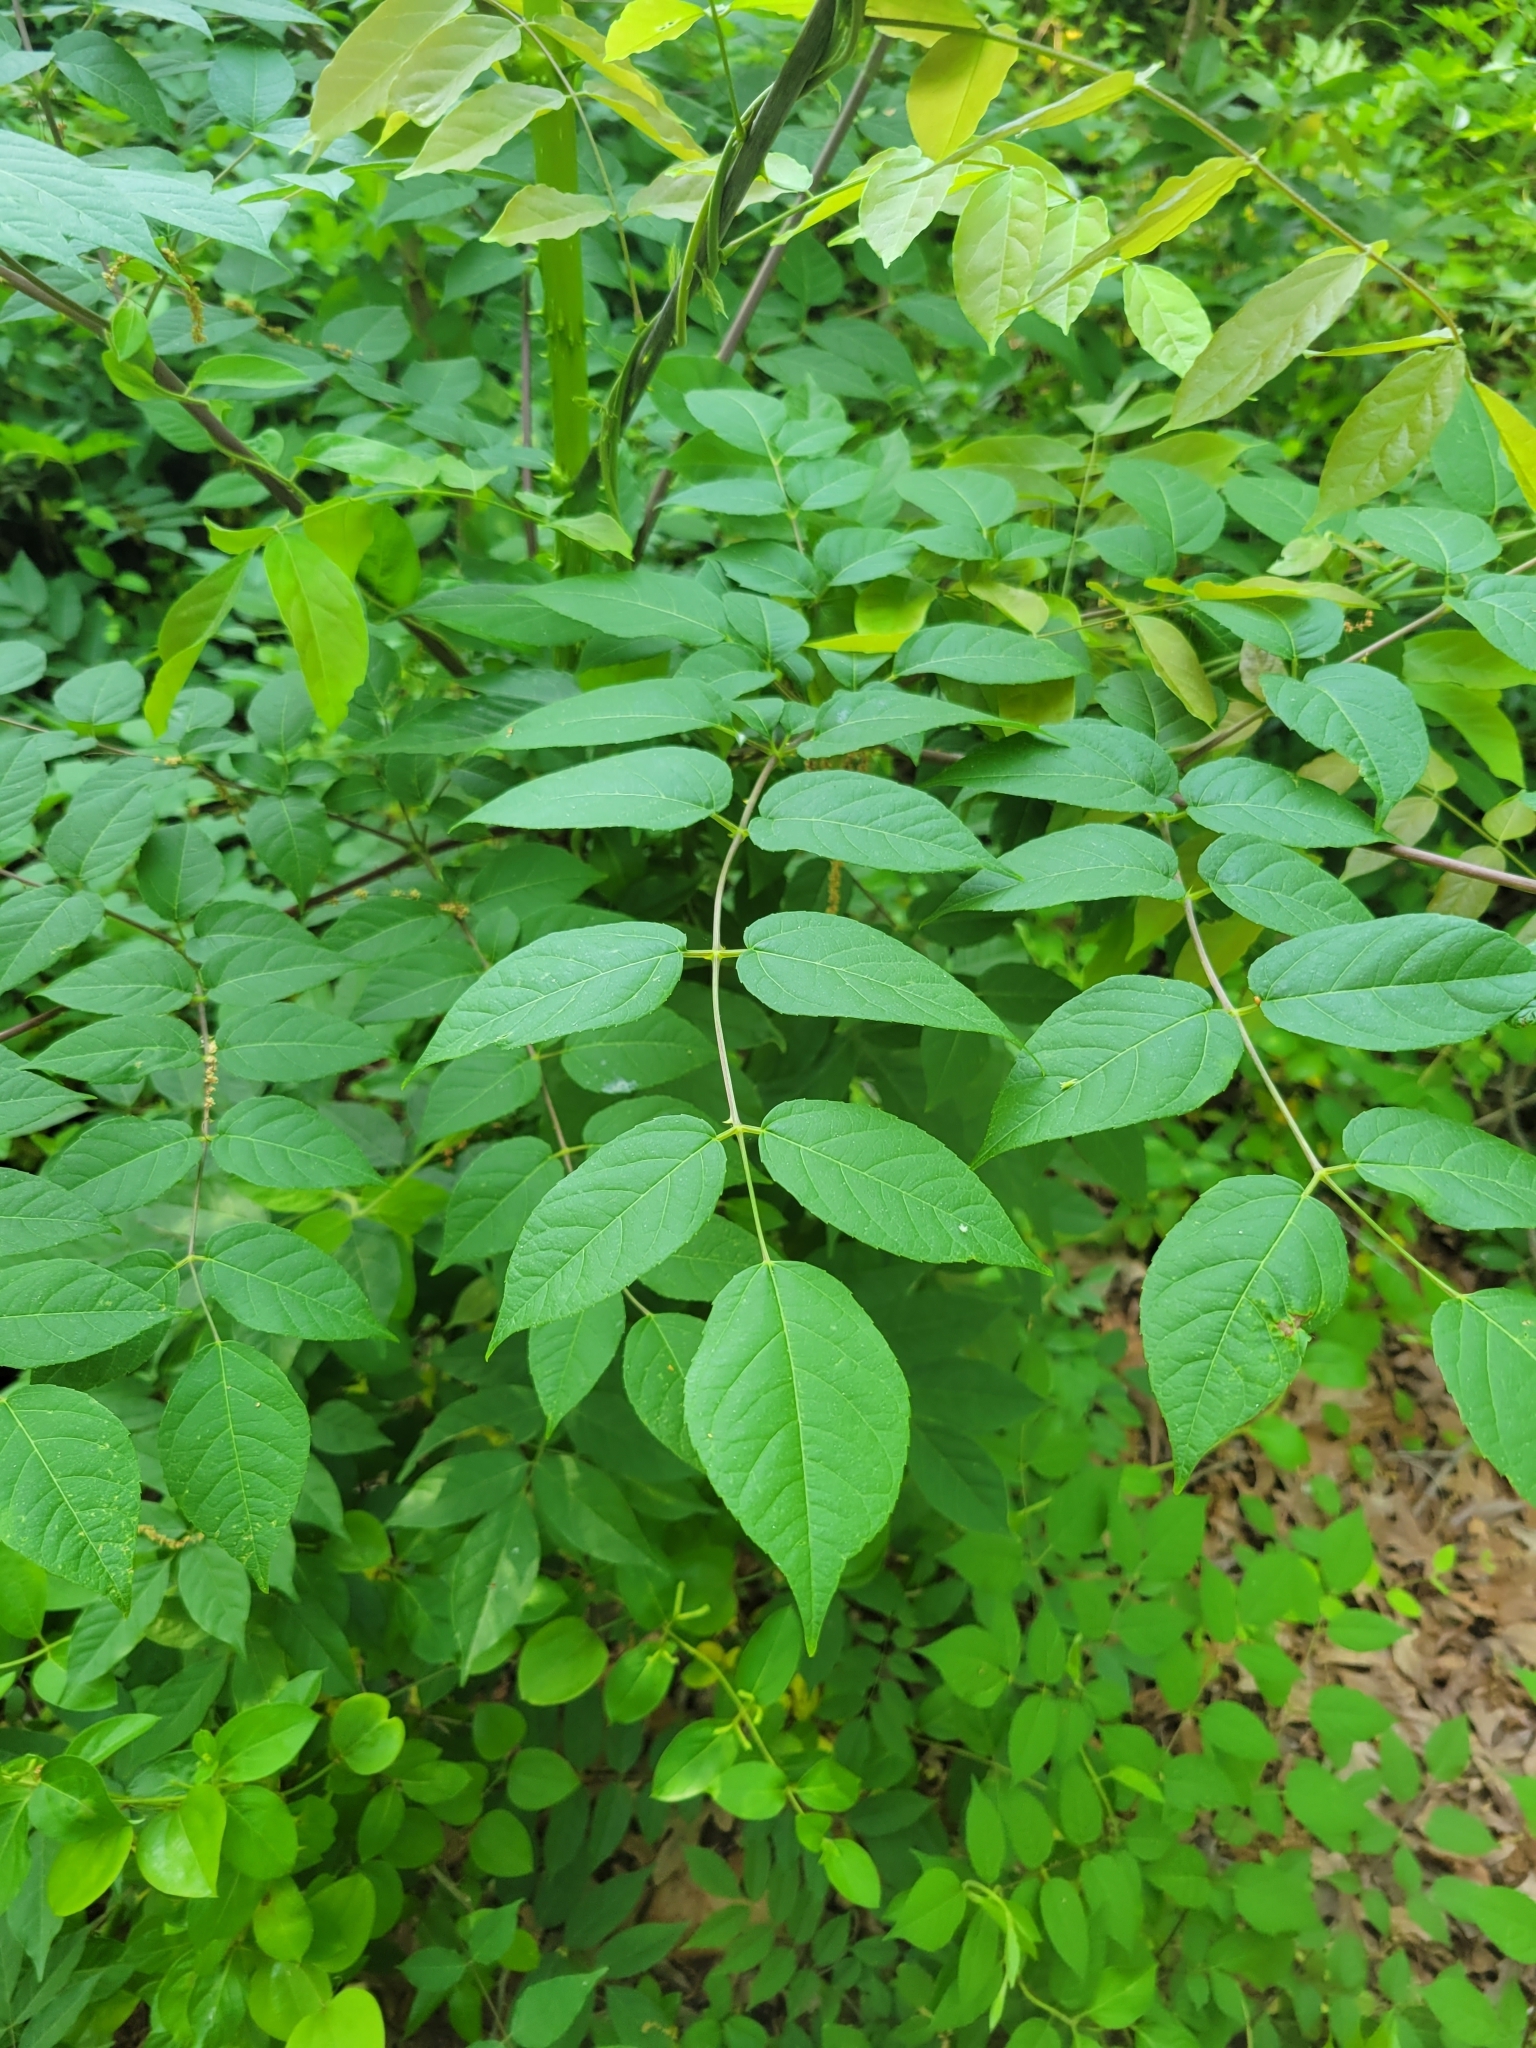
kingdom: Plantae
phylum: Tracheophyta
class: Magnoliopsida
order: Apiales
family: Araliaceae
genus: Aralia
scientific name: Aralia spinosa
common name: Hercules'-club
